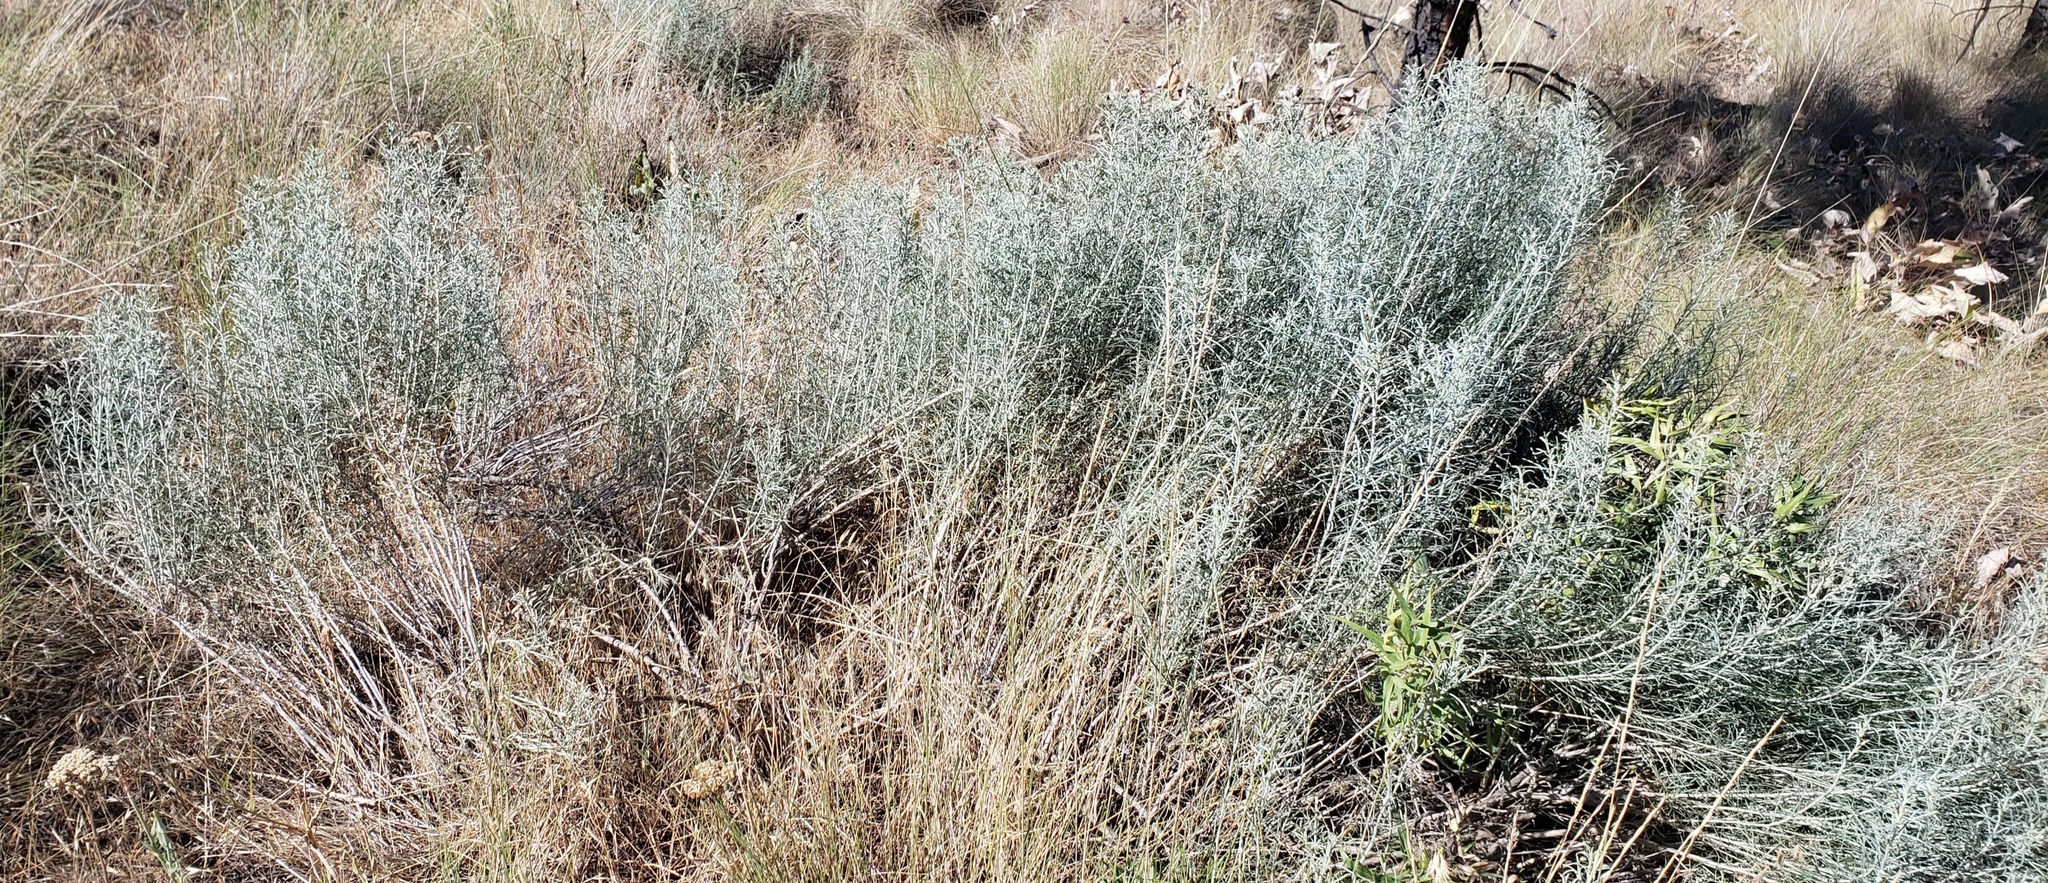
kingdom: Plantae
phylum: Tracheophyta
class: Magnoliopsida
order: Asterales
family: Asteraceae
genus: Ericameria
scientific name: Ericameria nauseosa
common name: Rubber rabbitbrush
